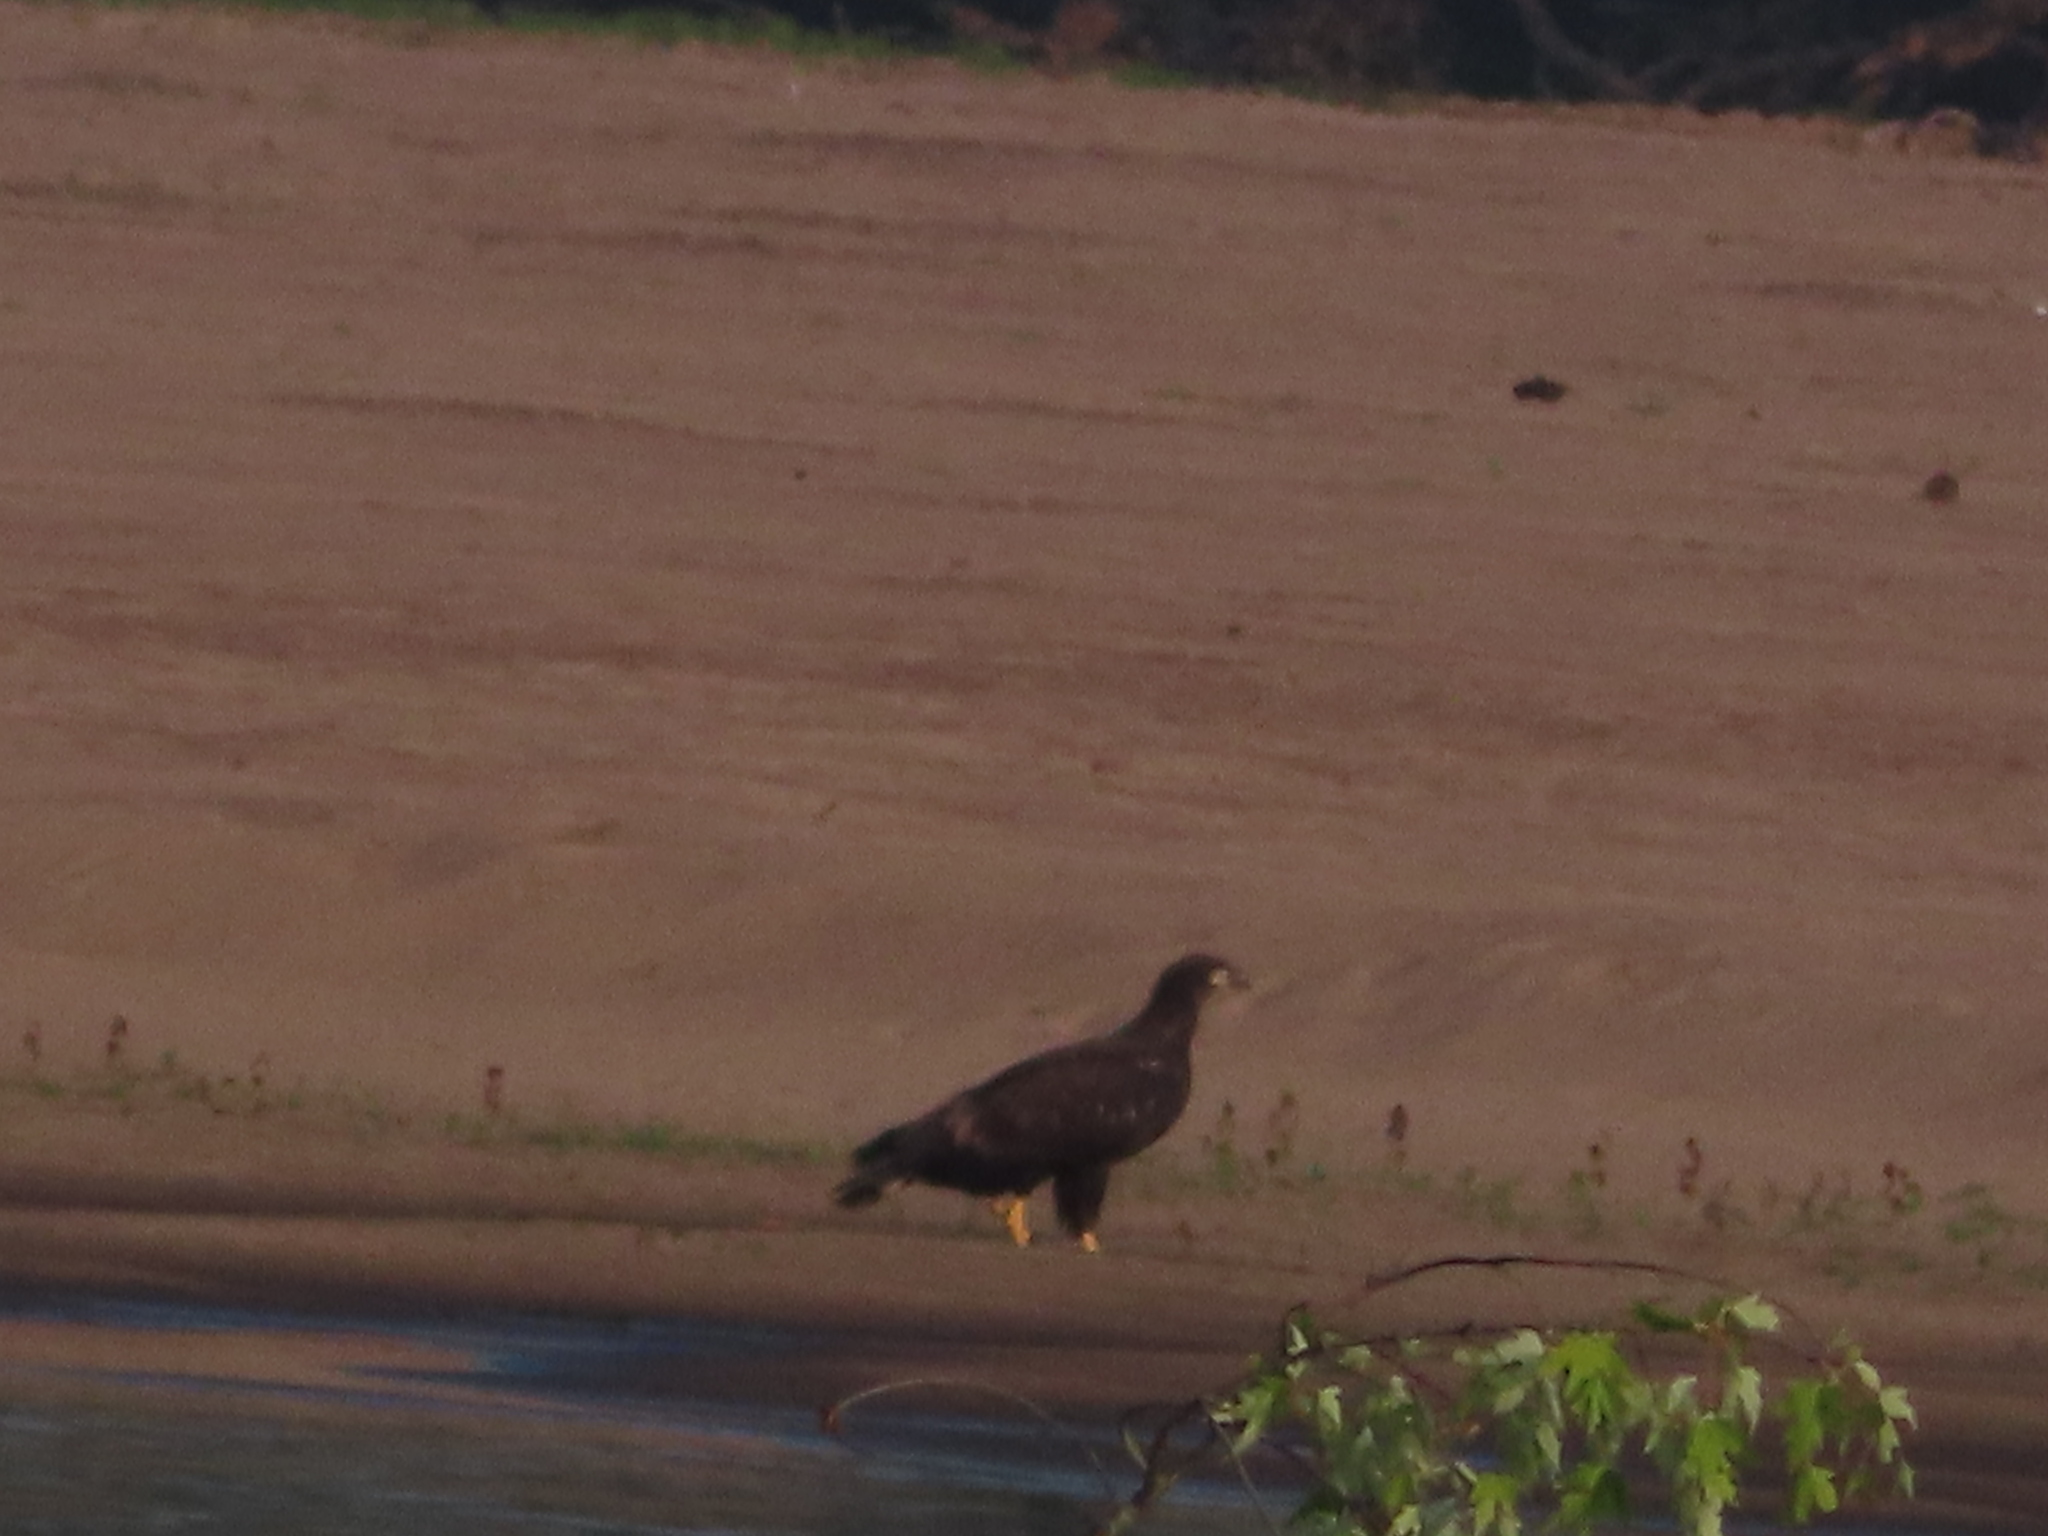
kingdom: Animalia
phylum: Chordata
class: Aves
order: Accipitriformes
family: Accipitridae
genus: Haliaeetus
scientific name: Haliaeetus leucocephalus
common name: Bald eagle
